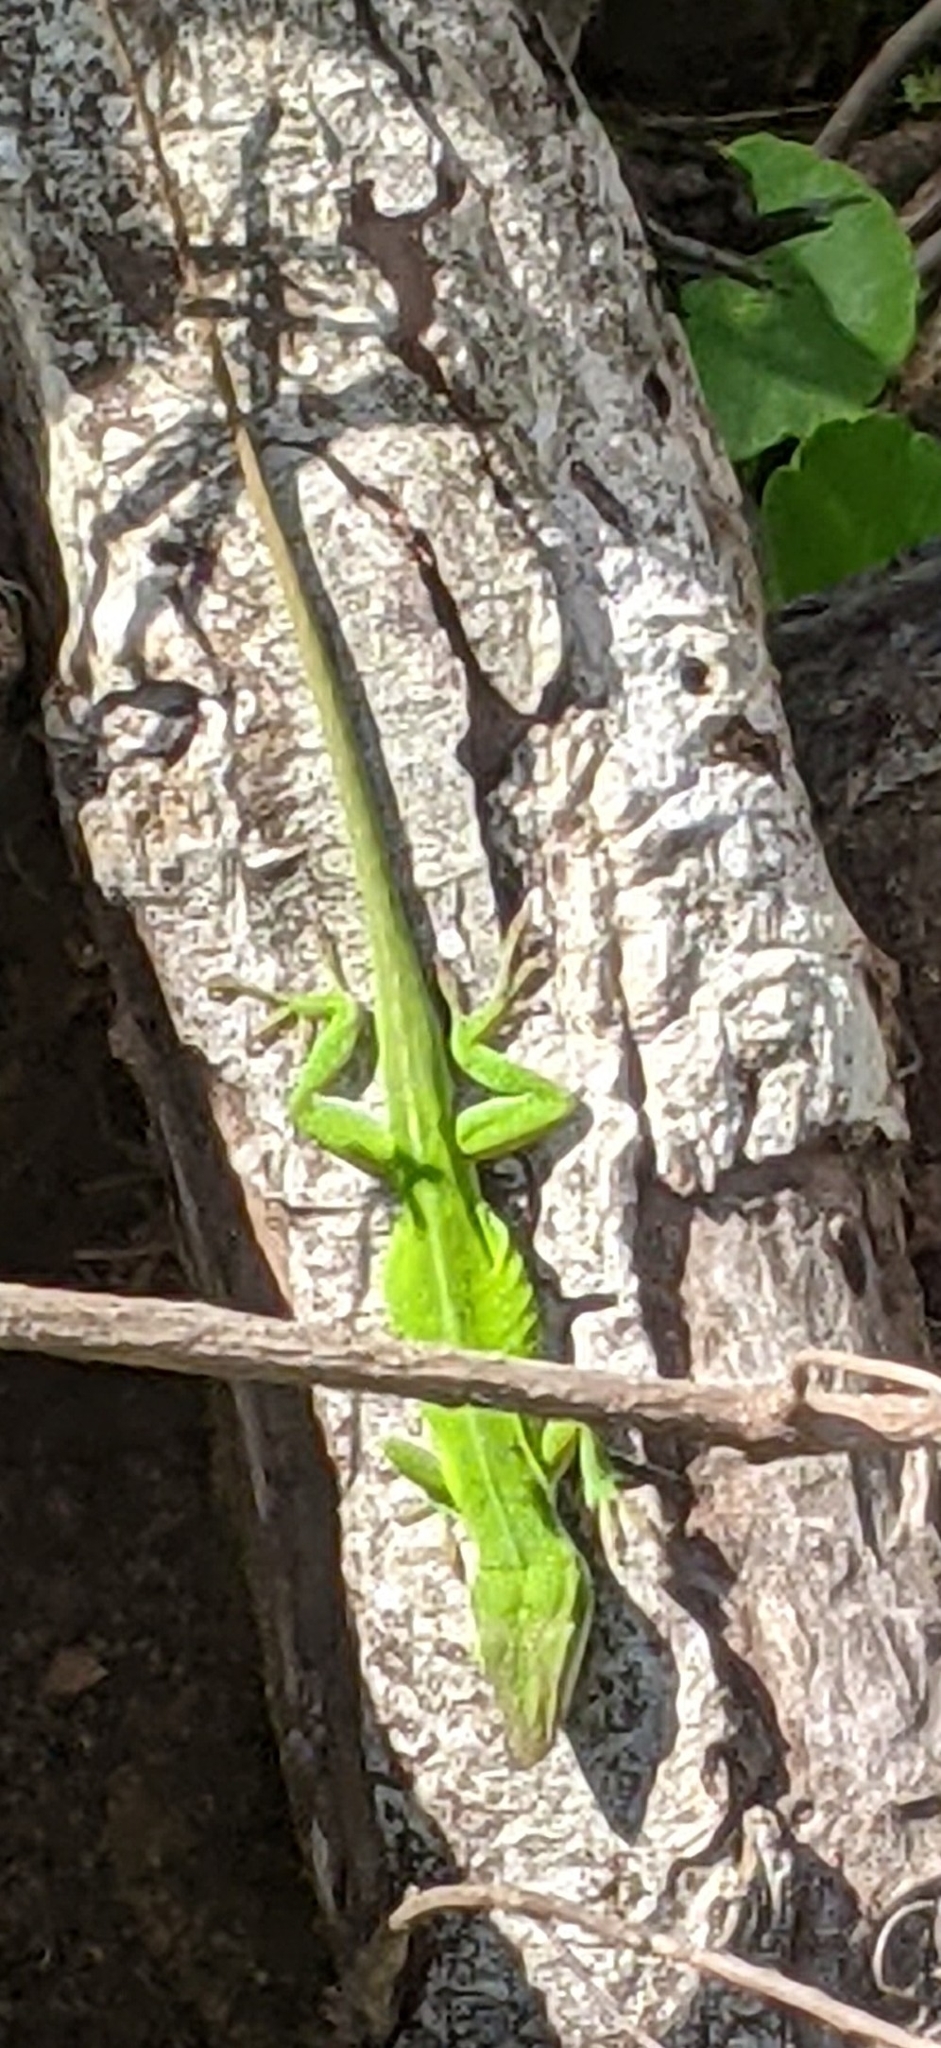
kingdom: Animalia
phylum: Chordata
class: Squamata
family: Dactyloidae
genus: Anolis
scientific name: Anolis carolinensis
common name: Green anole
